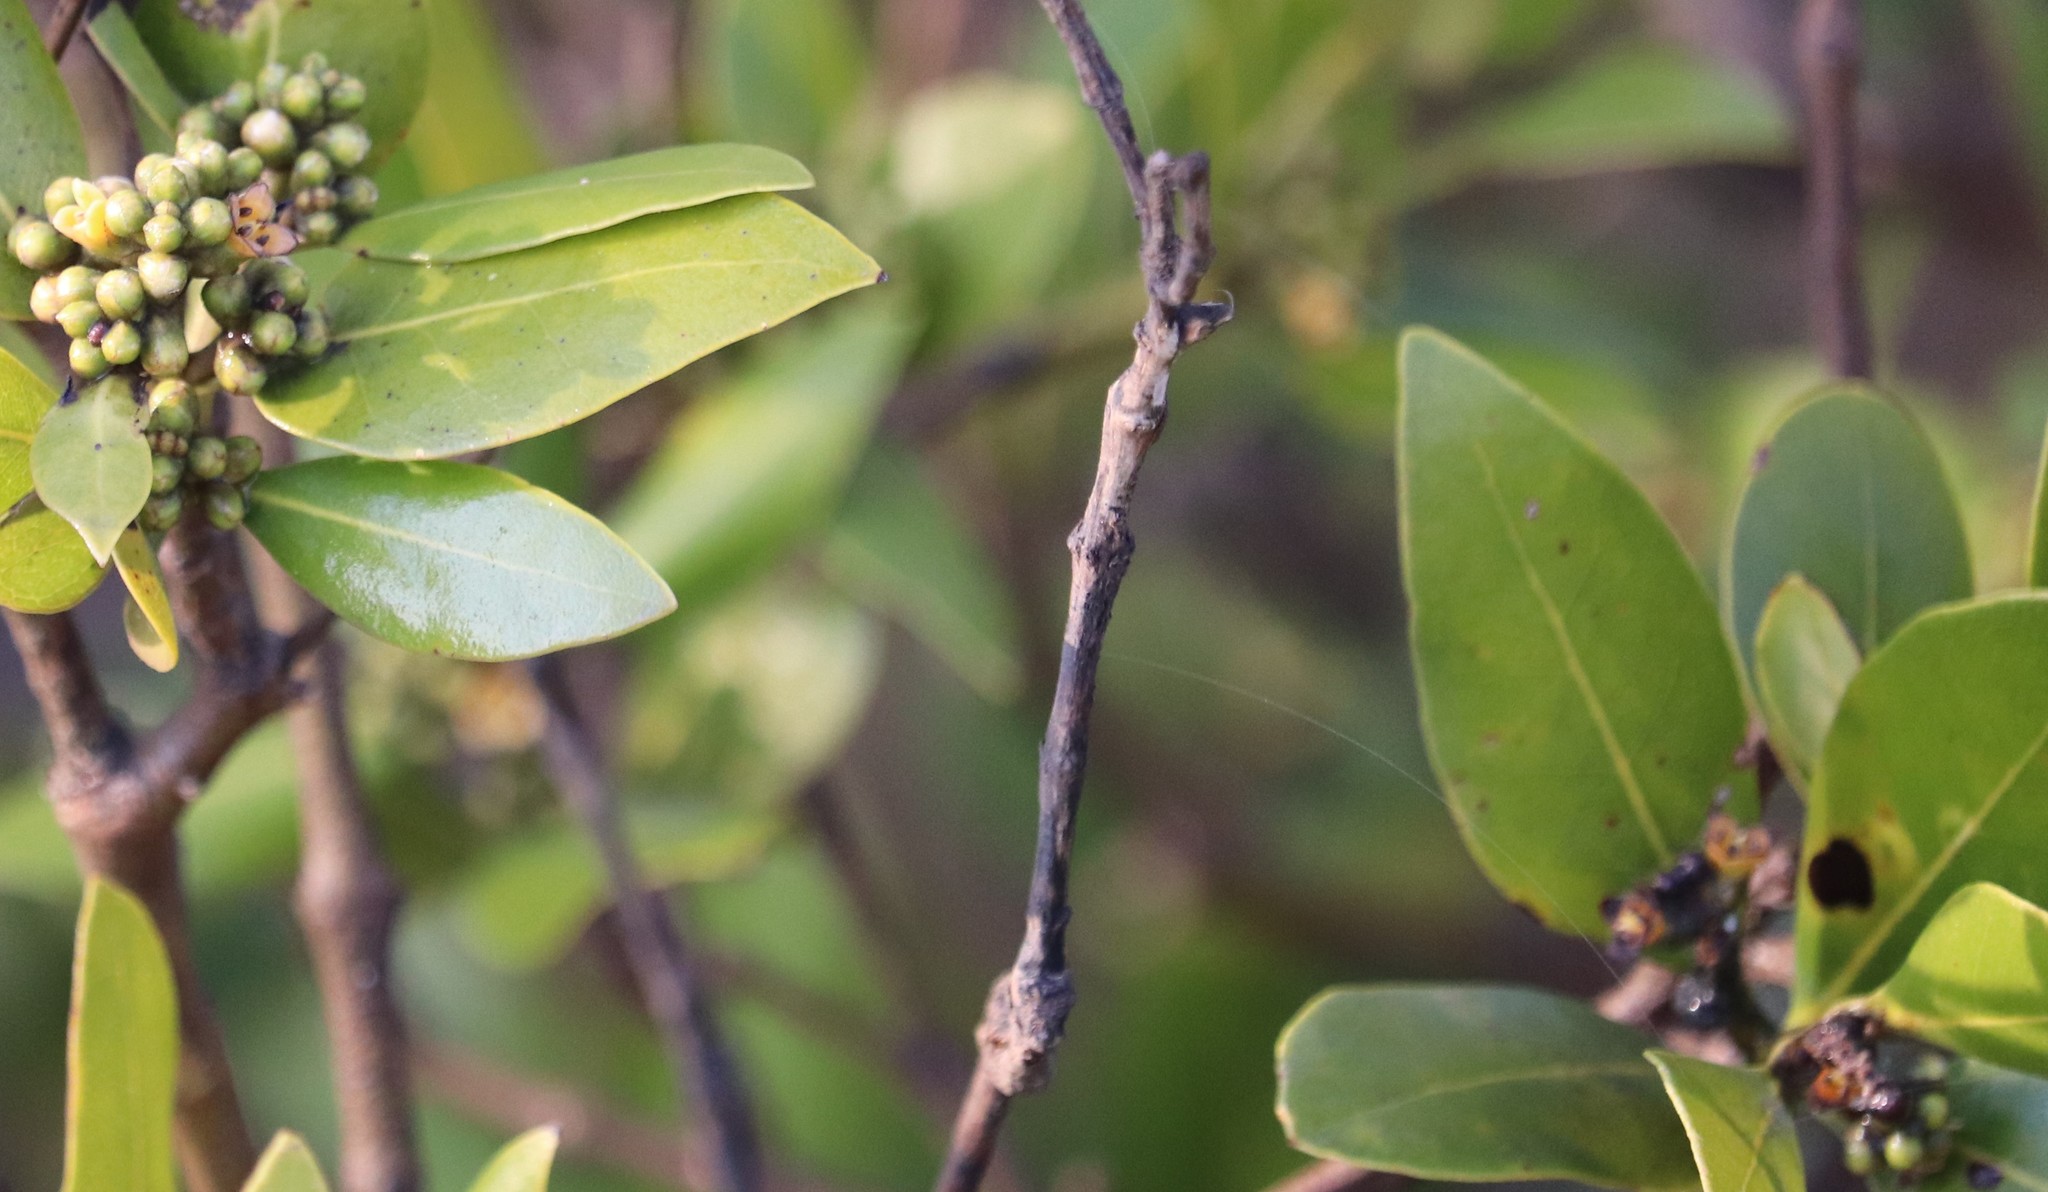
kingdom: Plantae
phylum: Tracheophyta
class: Magnoliopsida
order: Lamiales
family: Acanthaceae
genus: Avicennia
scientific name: Avicennia marina
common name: Gray mangrove
